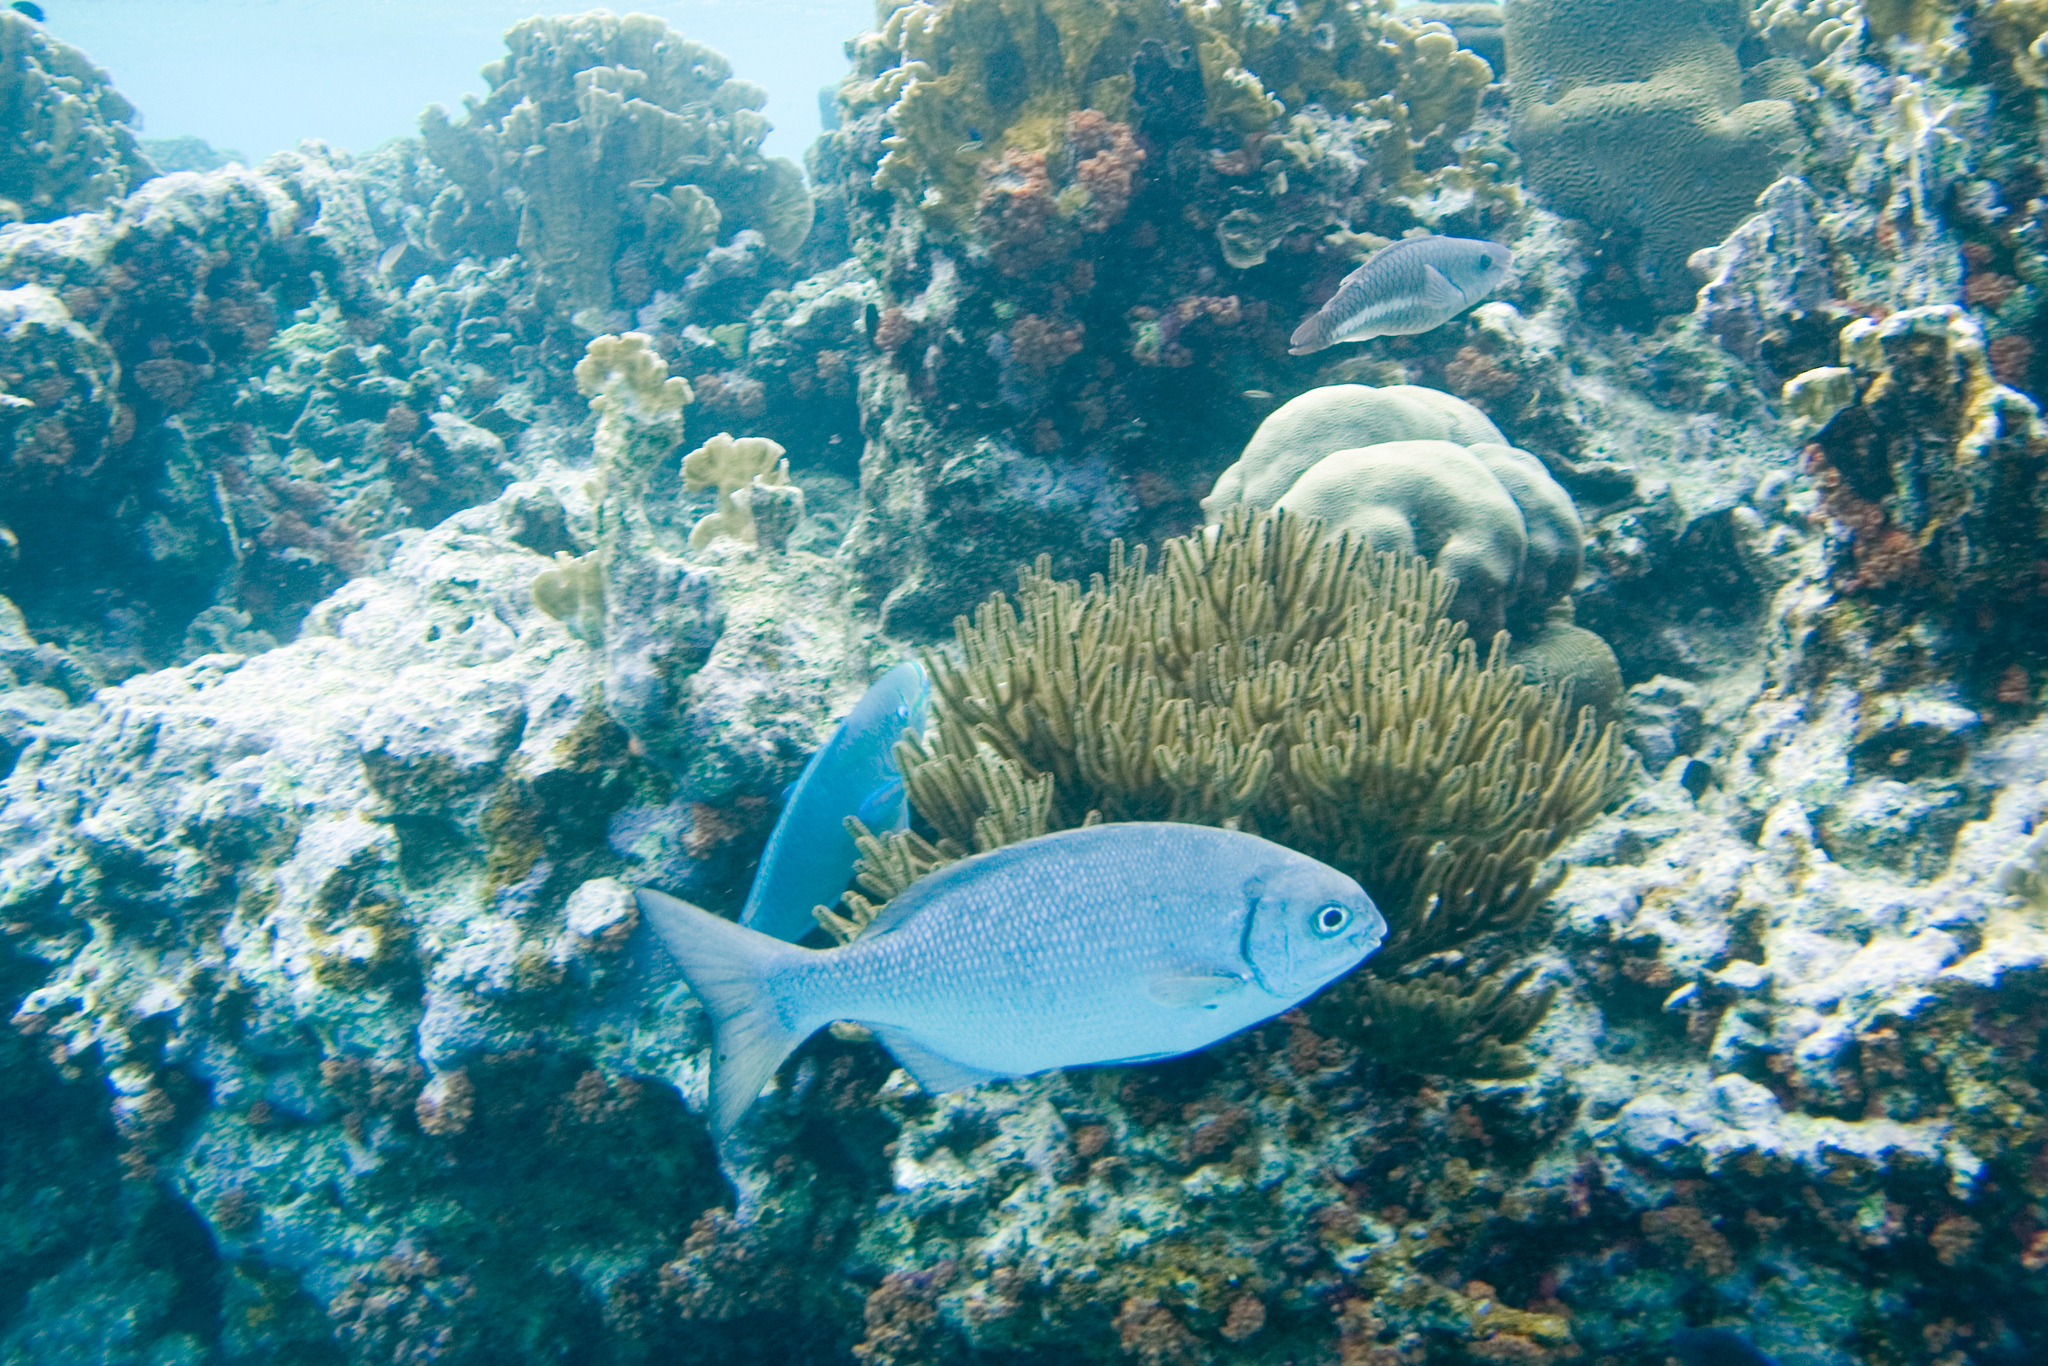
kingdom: Animalia
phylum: Chordata
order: Perciformes
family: Kyphosidae
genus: Kyphosus
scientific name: Kyphosus sectatrix
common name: Bermuda chub
